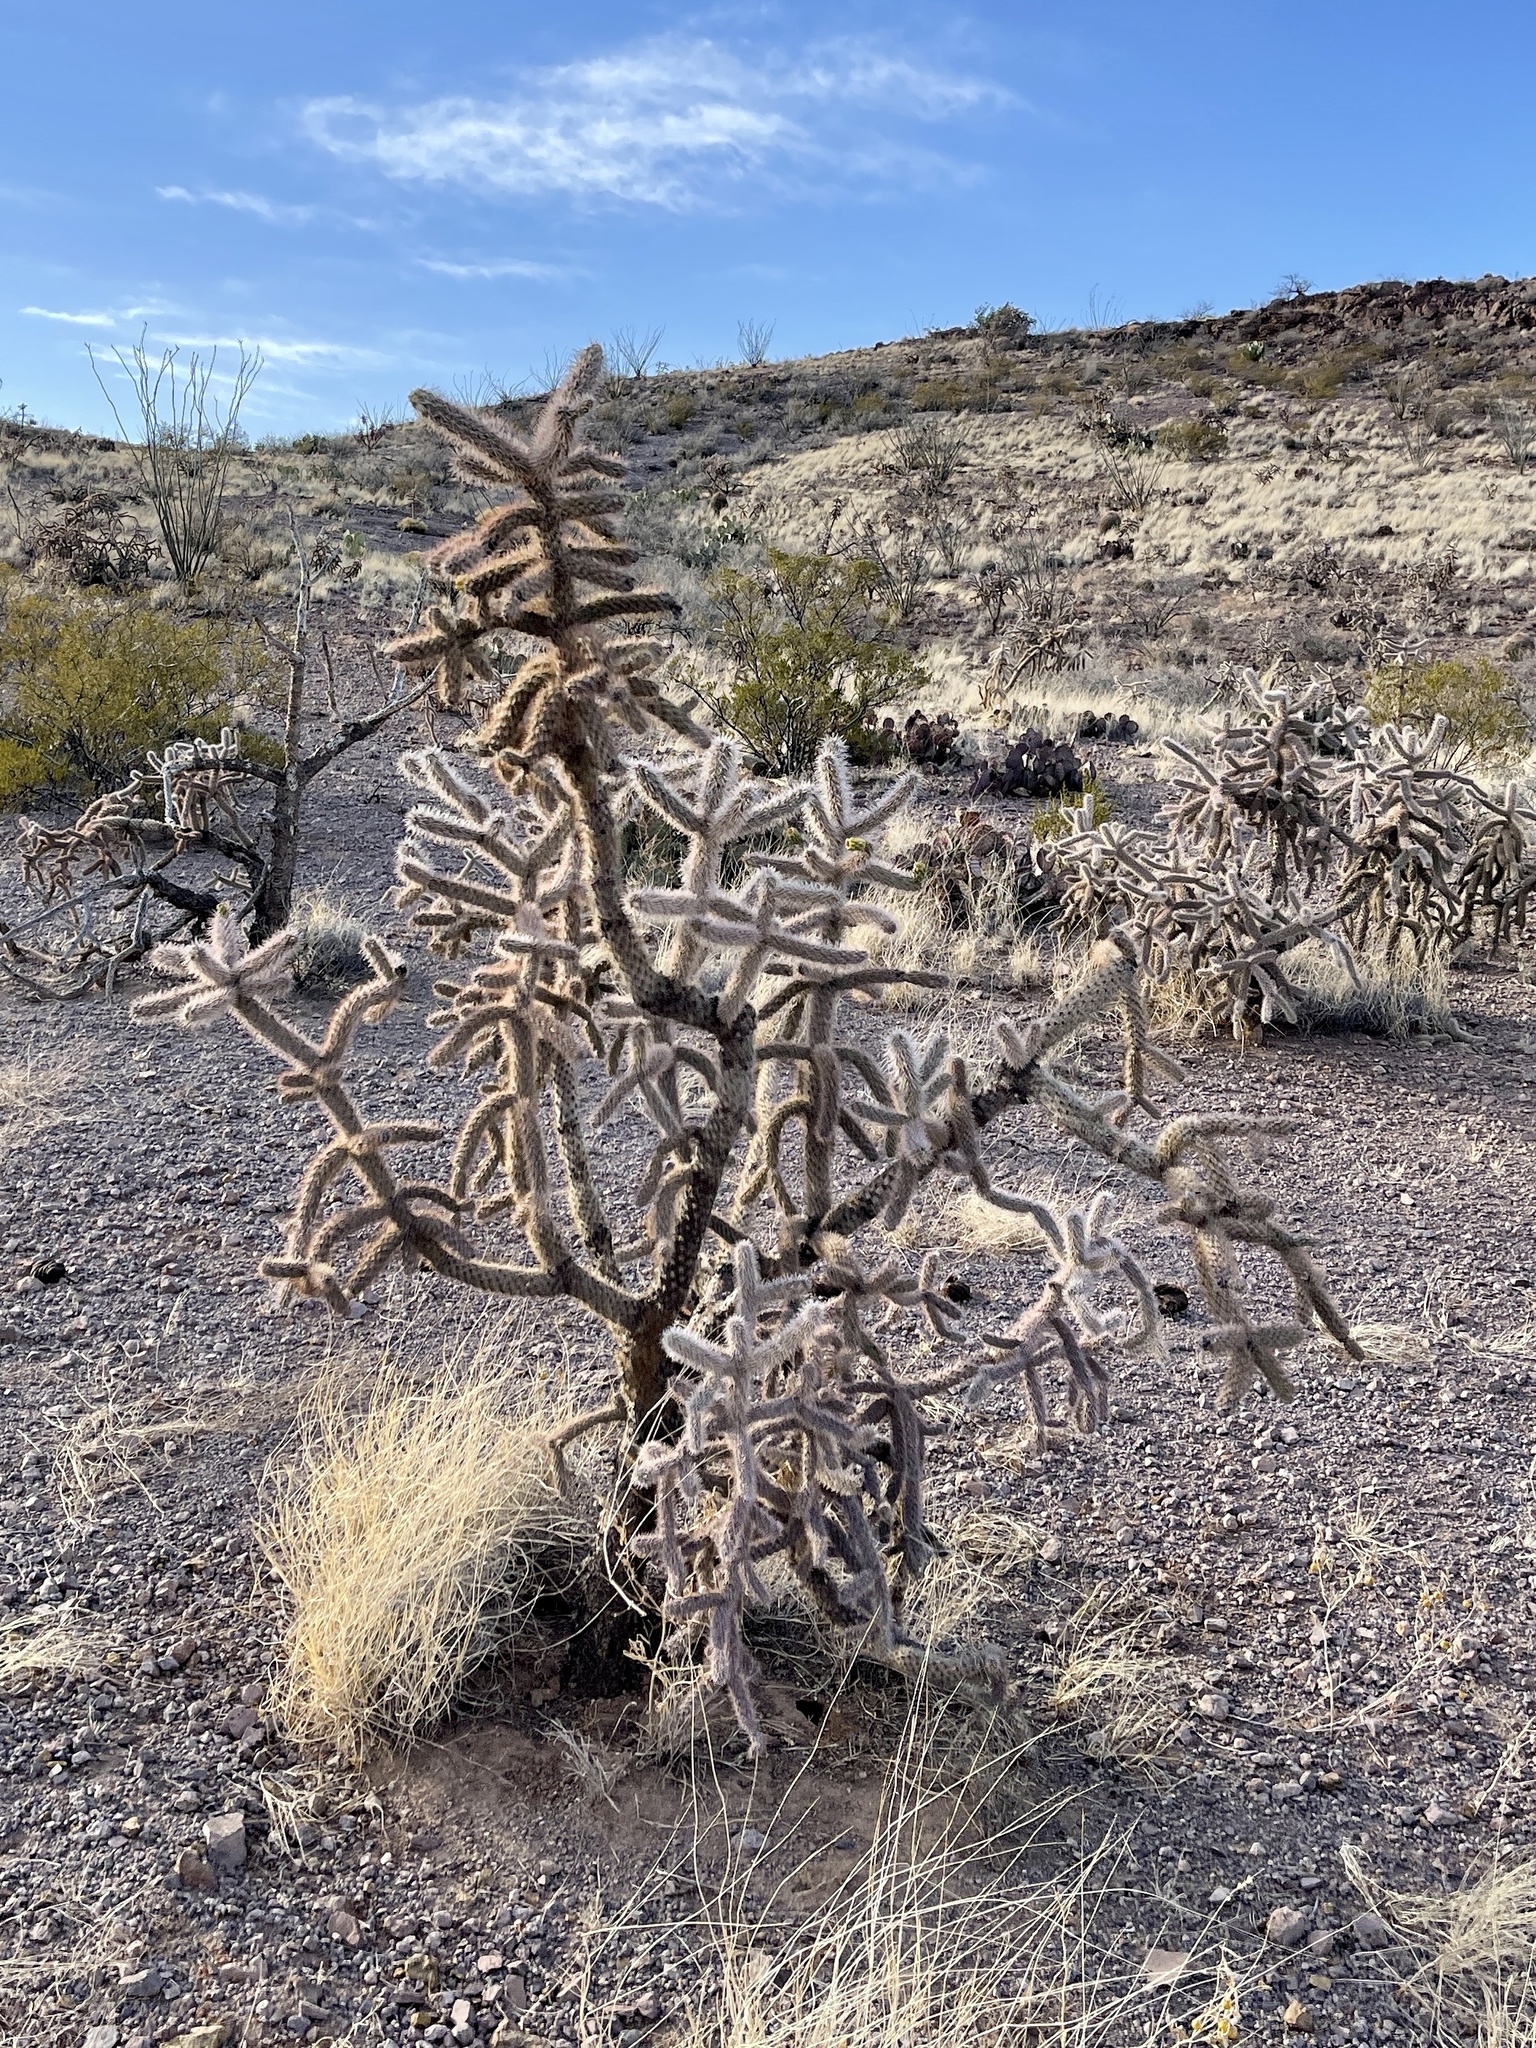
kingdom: Plantae
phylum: Tracheophyta
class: Magnoliopsida
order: Caryophyllales
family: Cactaceae
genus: Cylindropuntia
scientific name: Cylindropuntia imbricata
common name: Candelabrum cactus
